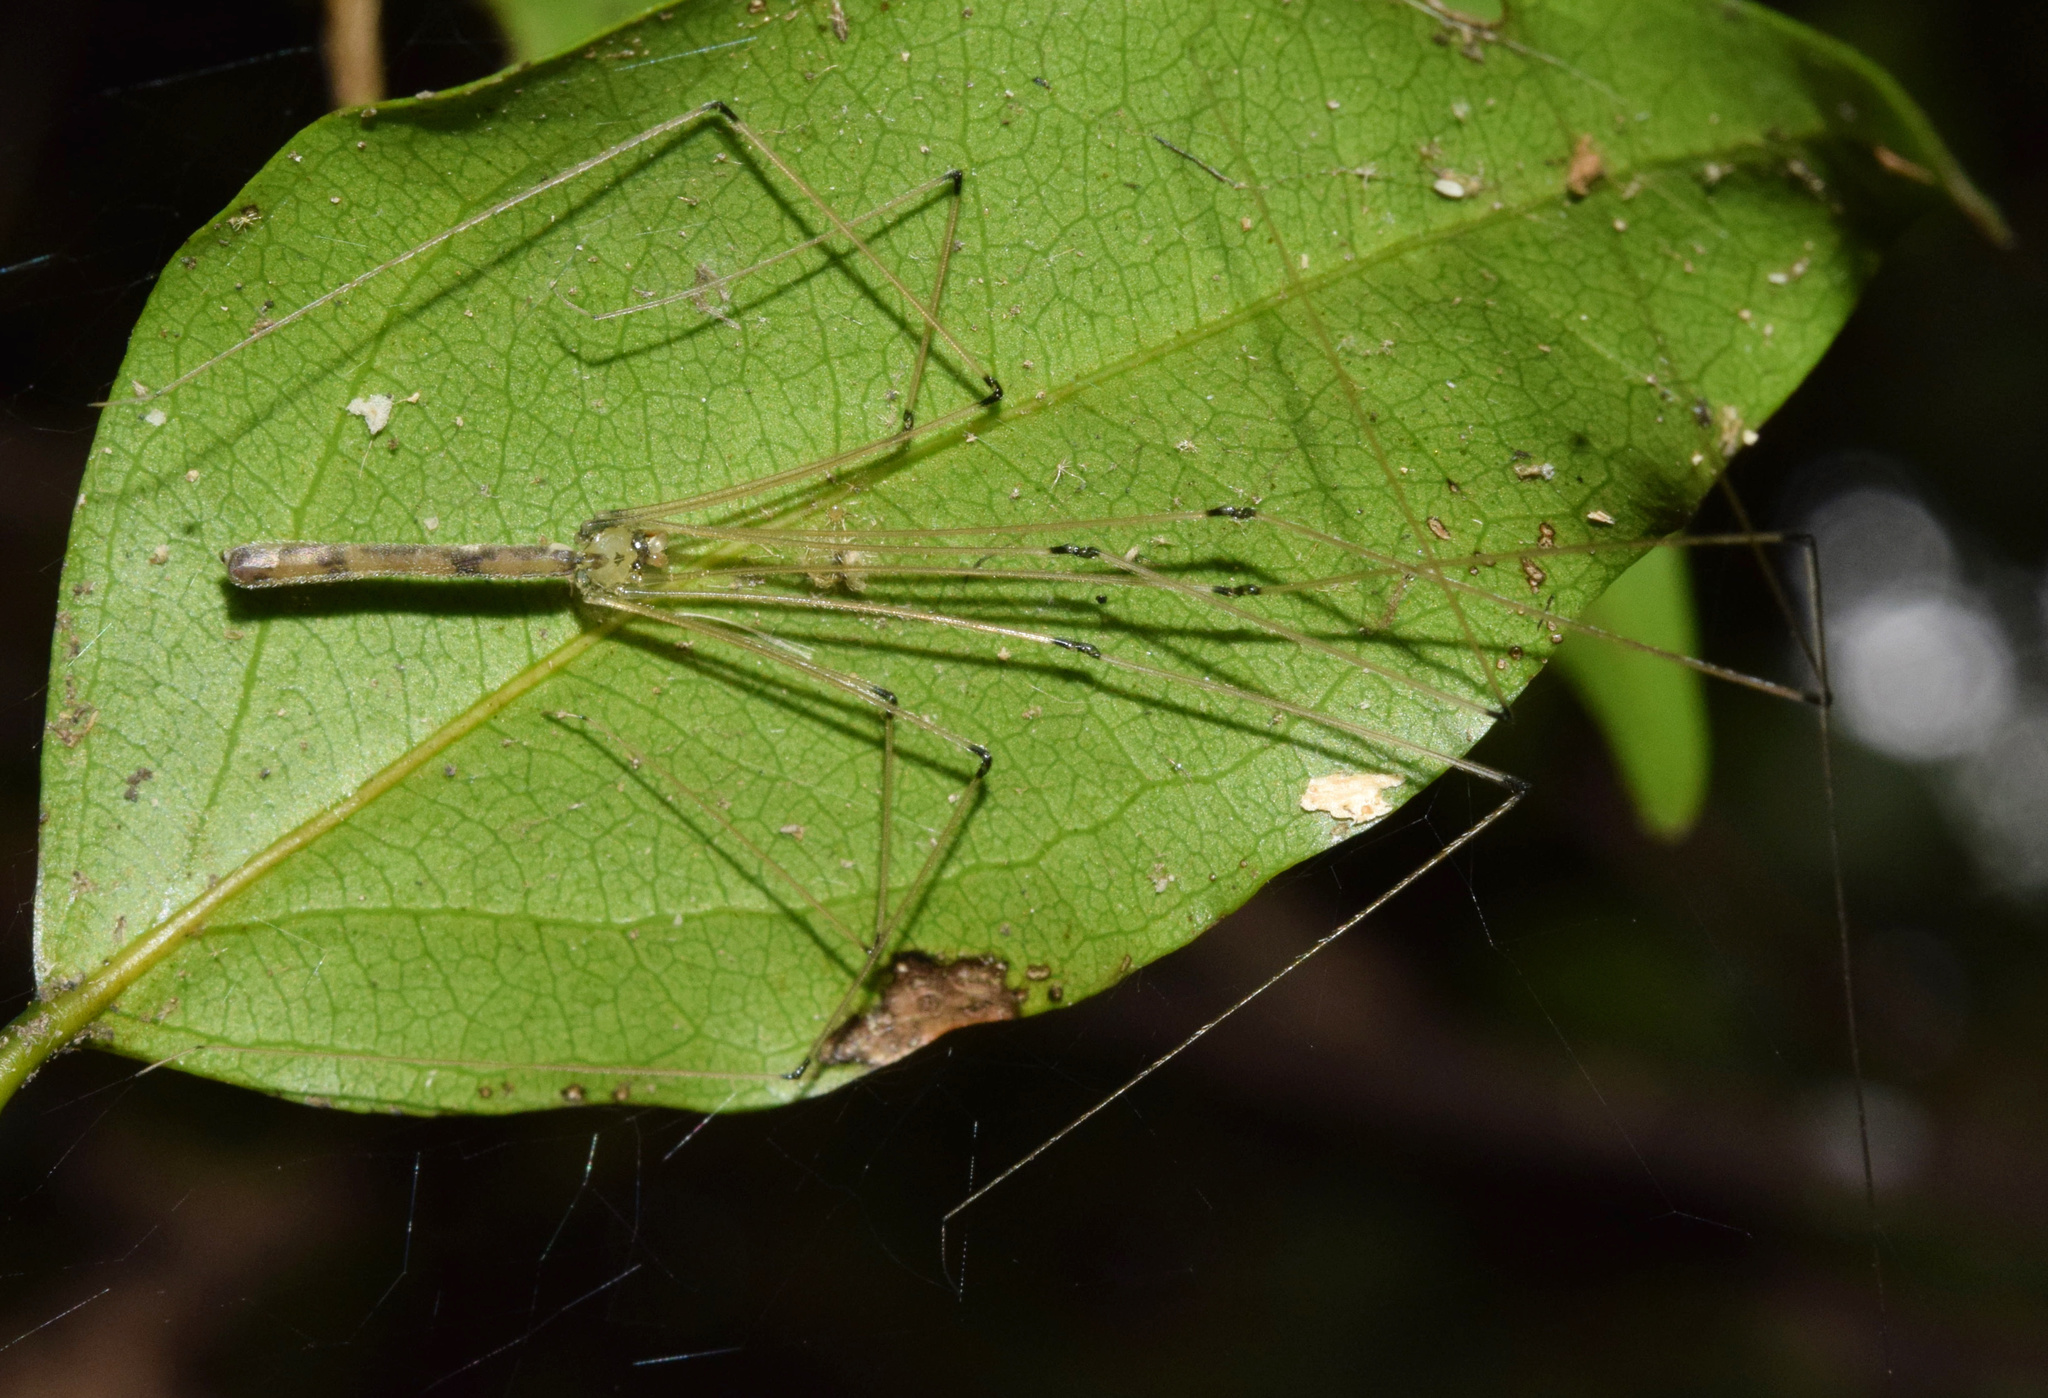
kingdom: Animalia
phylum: Arthropoda
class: Arachnida
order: Araneae
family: Pholcidae
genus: Leptopholcus
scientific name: Leptopholcus gracilis
